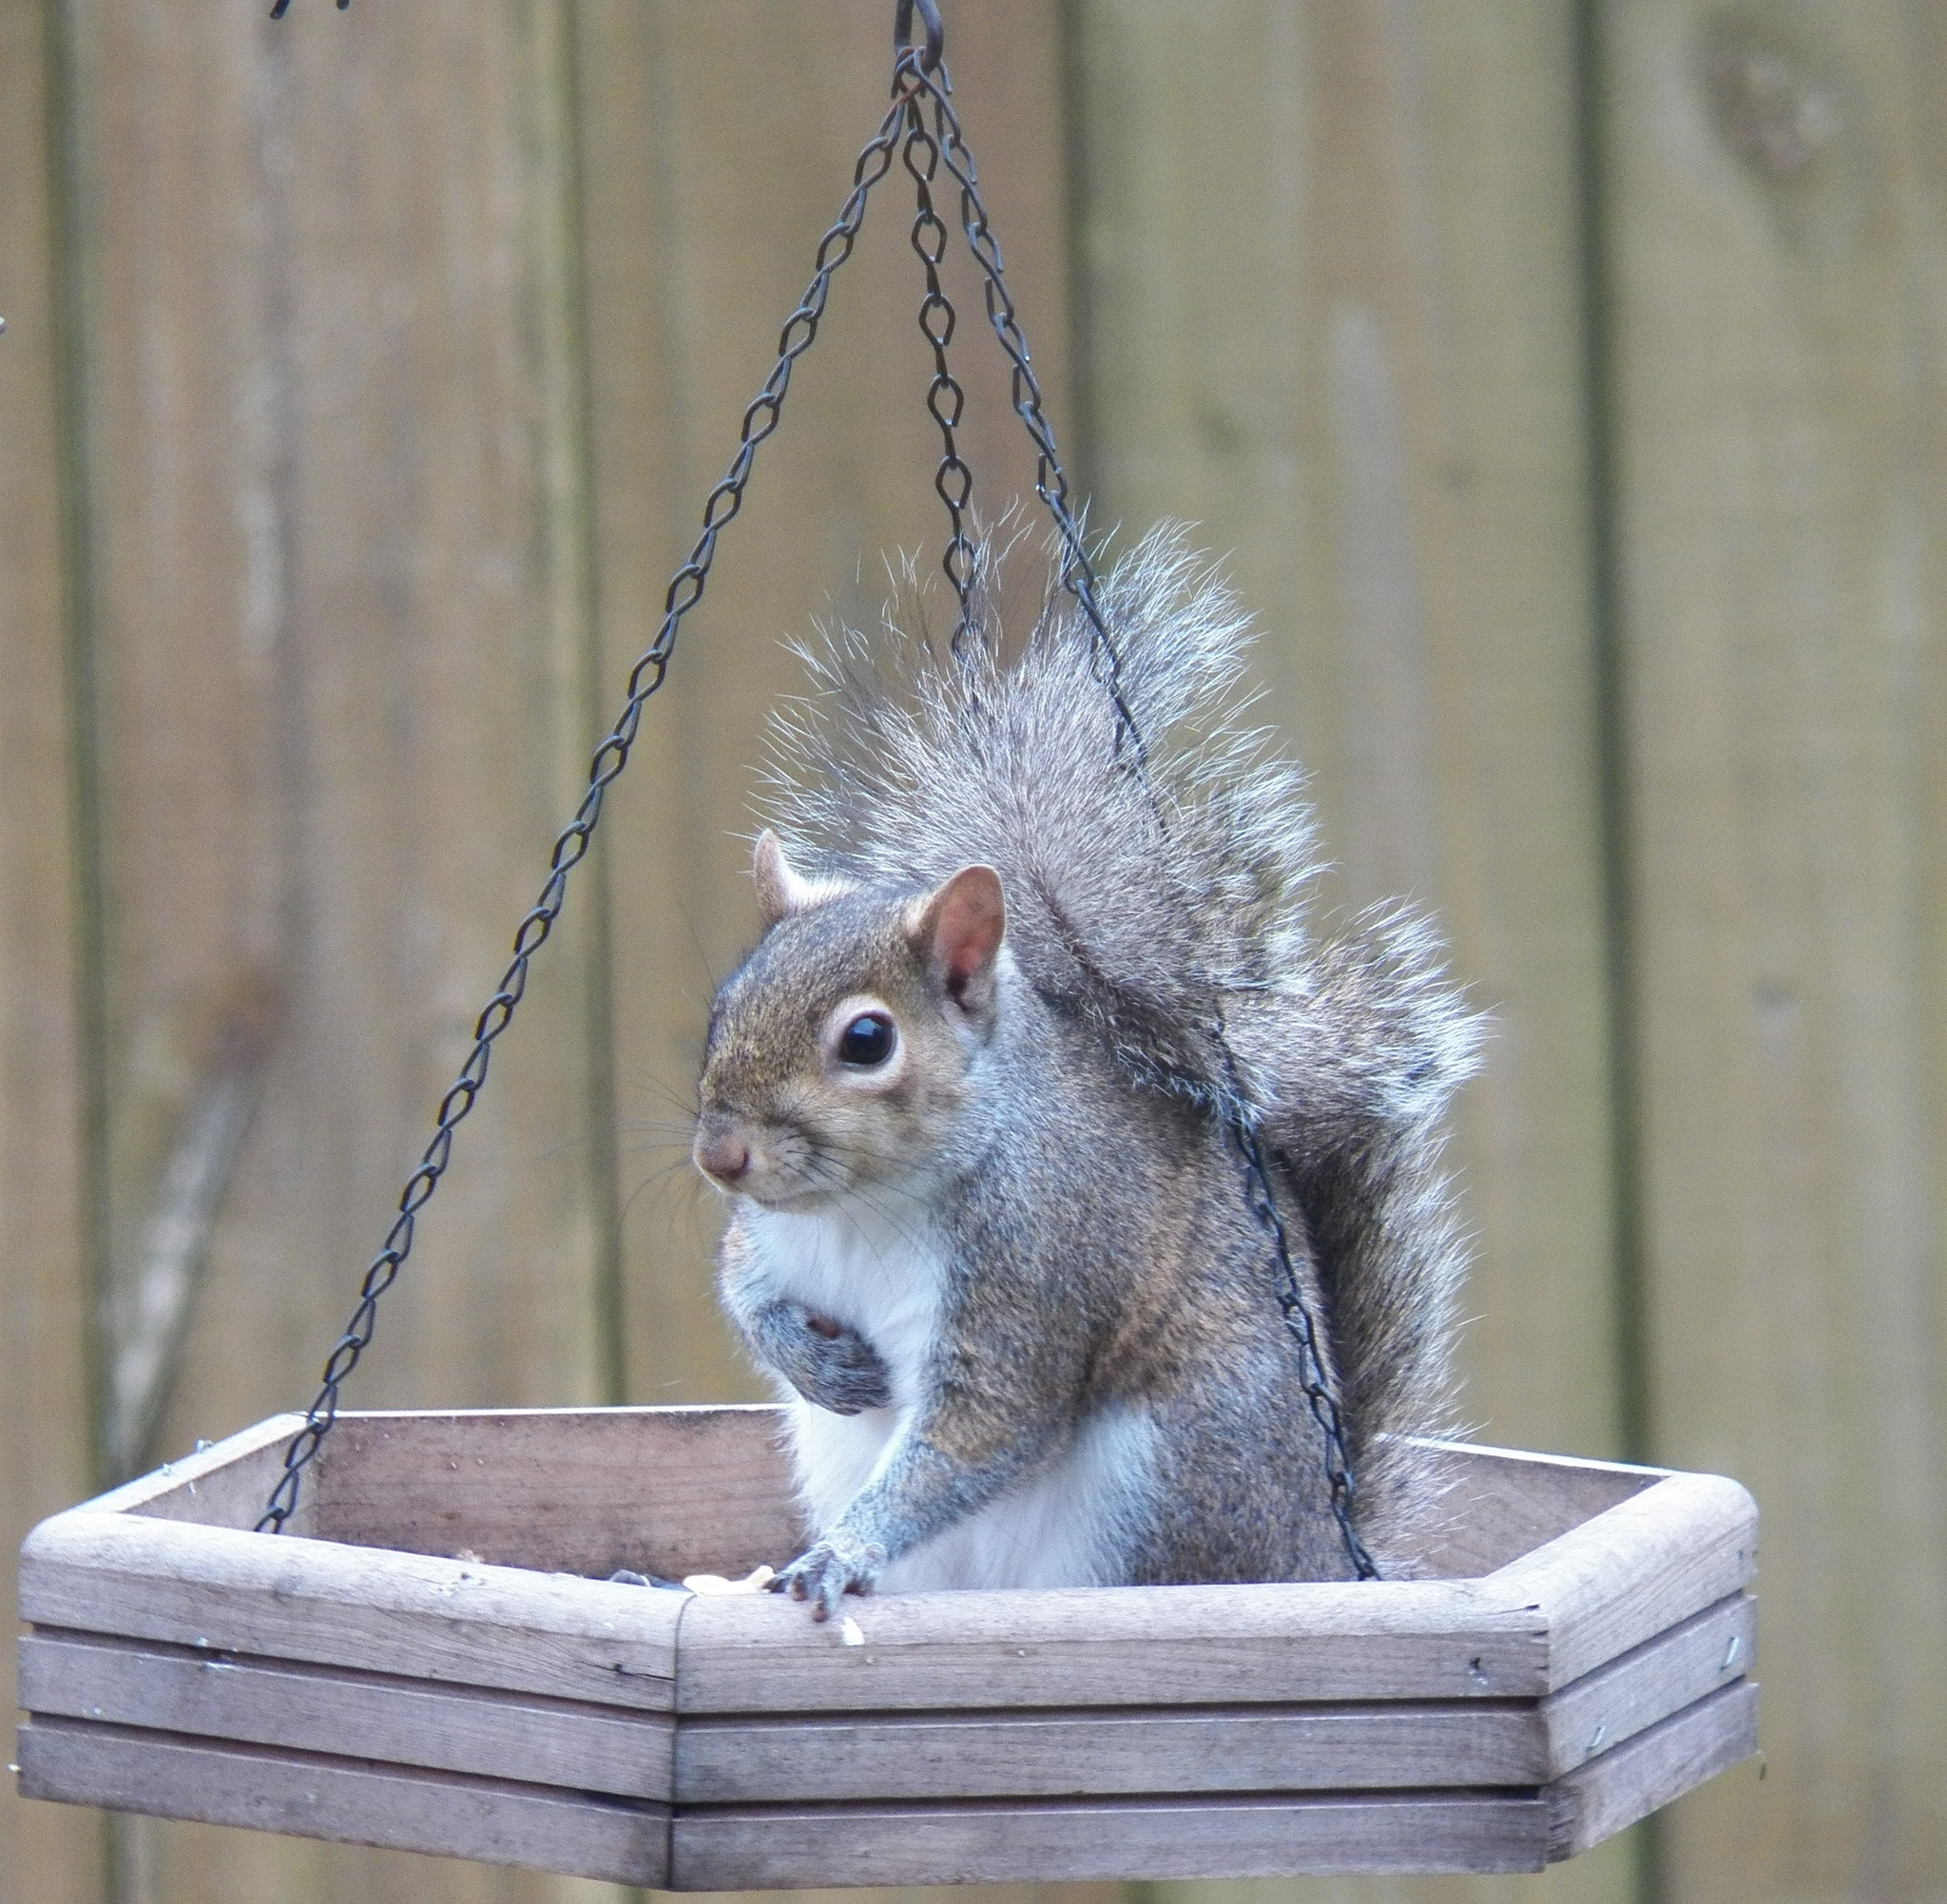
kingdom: Animalia
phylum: Chordata
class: Mammalia
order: Rodentia
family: Sciuridae
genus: Sciurus
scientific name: Sciurus carolinensis
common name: Eastern gray squirrel
